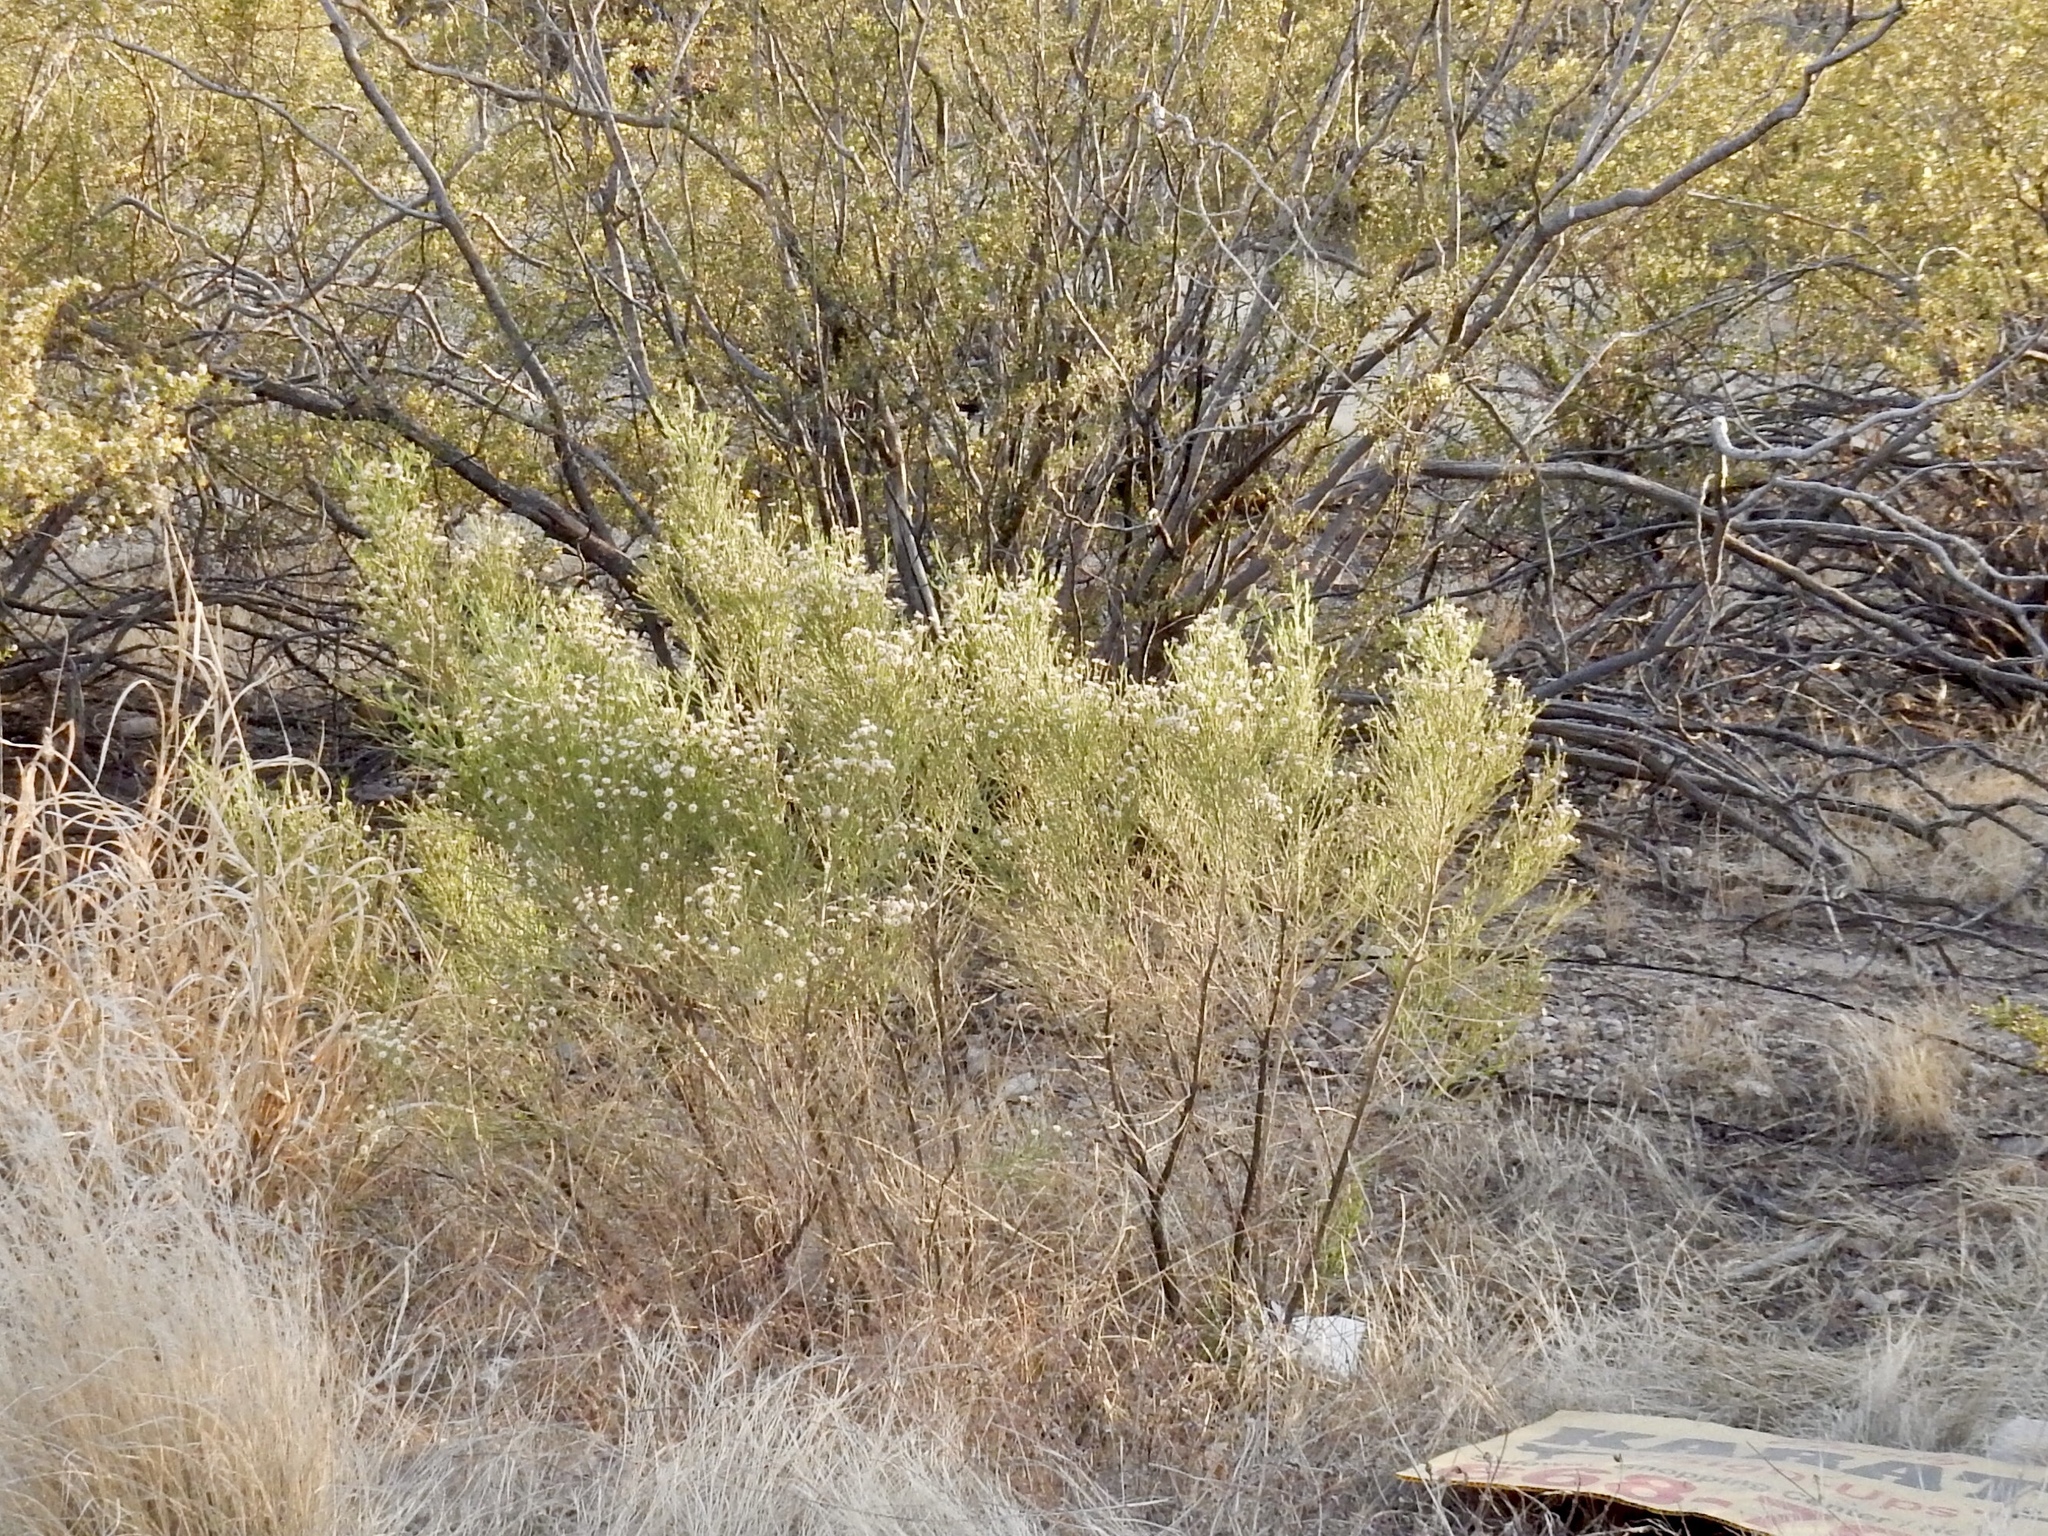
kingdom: Plantae
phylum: Tracheophyta
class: Magnoliopsida
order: Asterales
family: Asteraceae
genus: Baccharis
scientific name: Baccharis sarothroides
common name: Desert-broom
